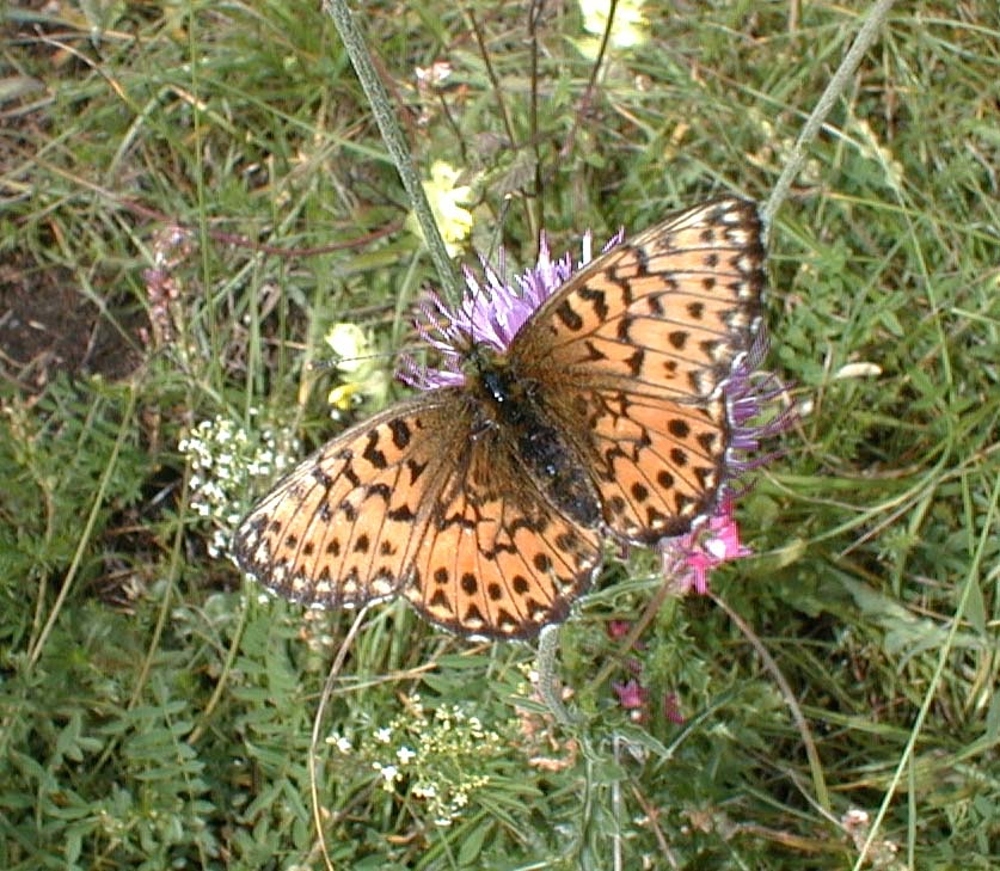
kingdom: Animalia
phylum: Arthropoda
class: Insecta
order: Lepidoptera
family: Nymphalidae
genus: Boloria
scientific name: Boloria titania
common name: Titania's fritillary
